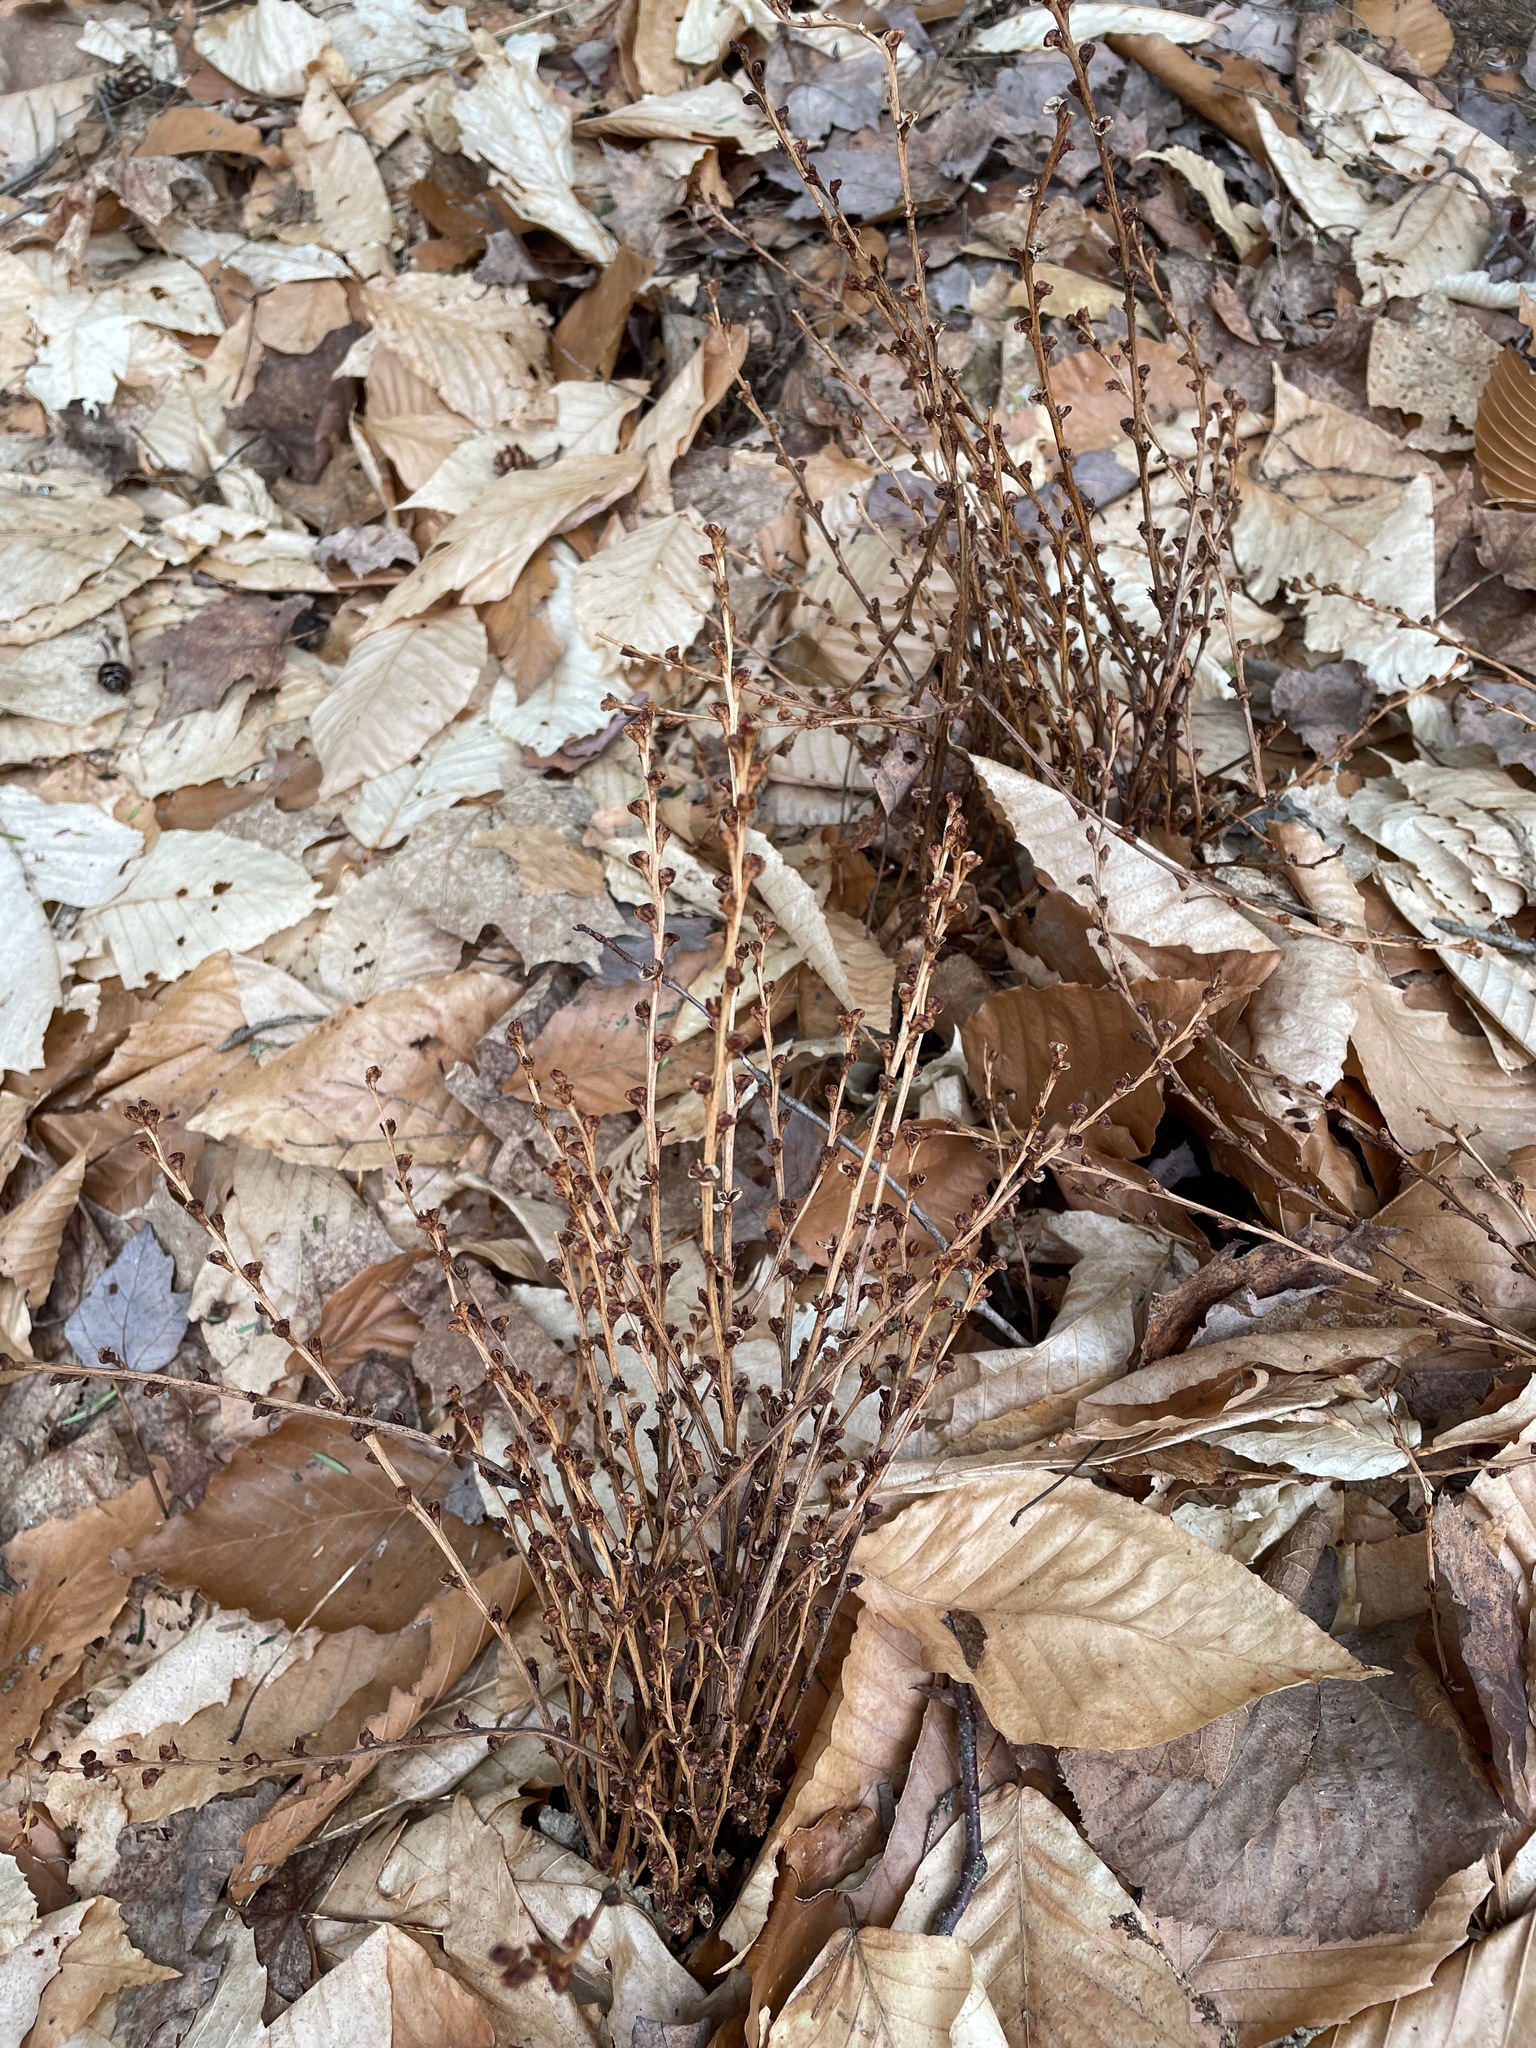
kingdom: Plantae
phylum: Tracheophyta
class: Magnoliopsida
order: Lamiales
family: Orobanchaceae
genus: Epifagus
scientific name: Epifagus virginiana
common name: Beechdrops
